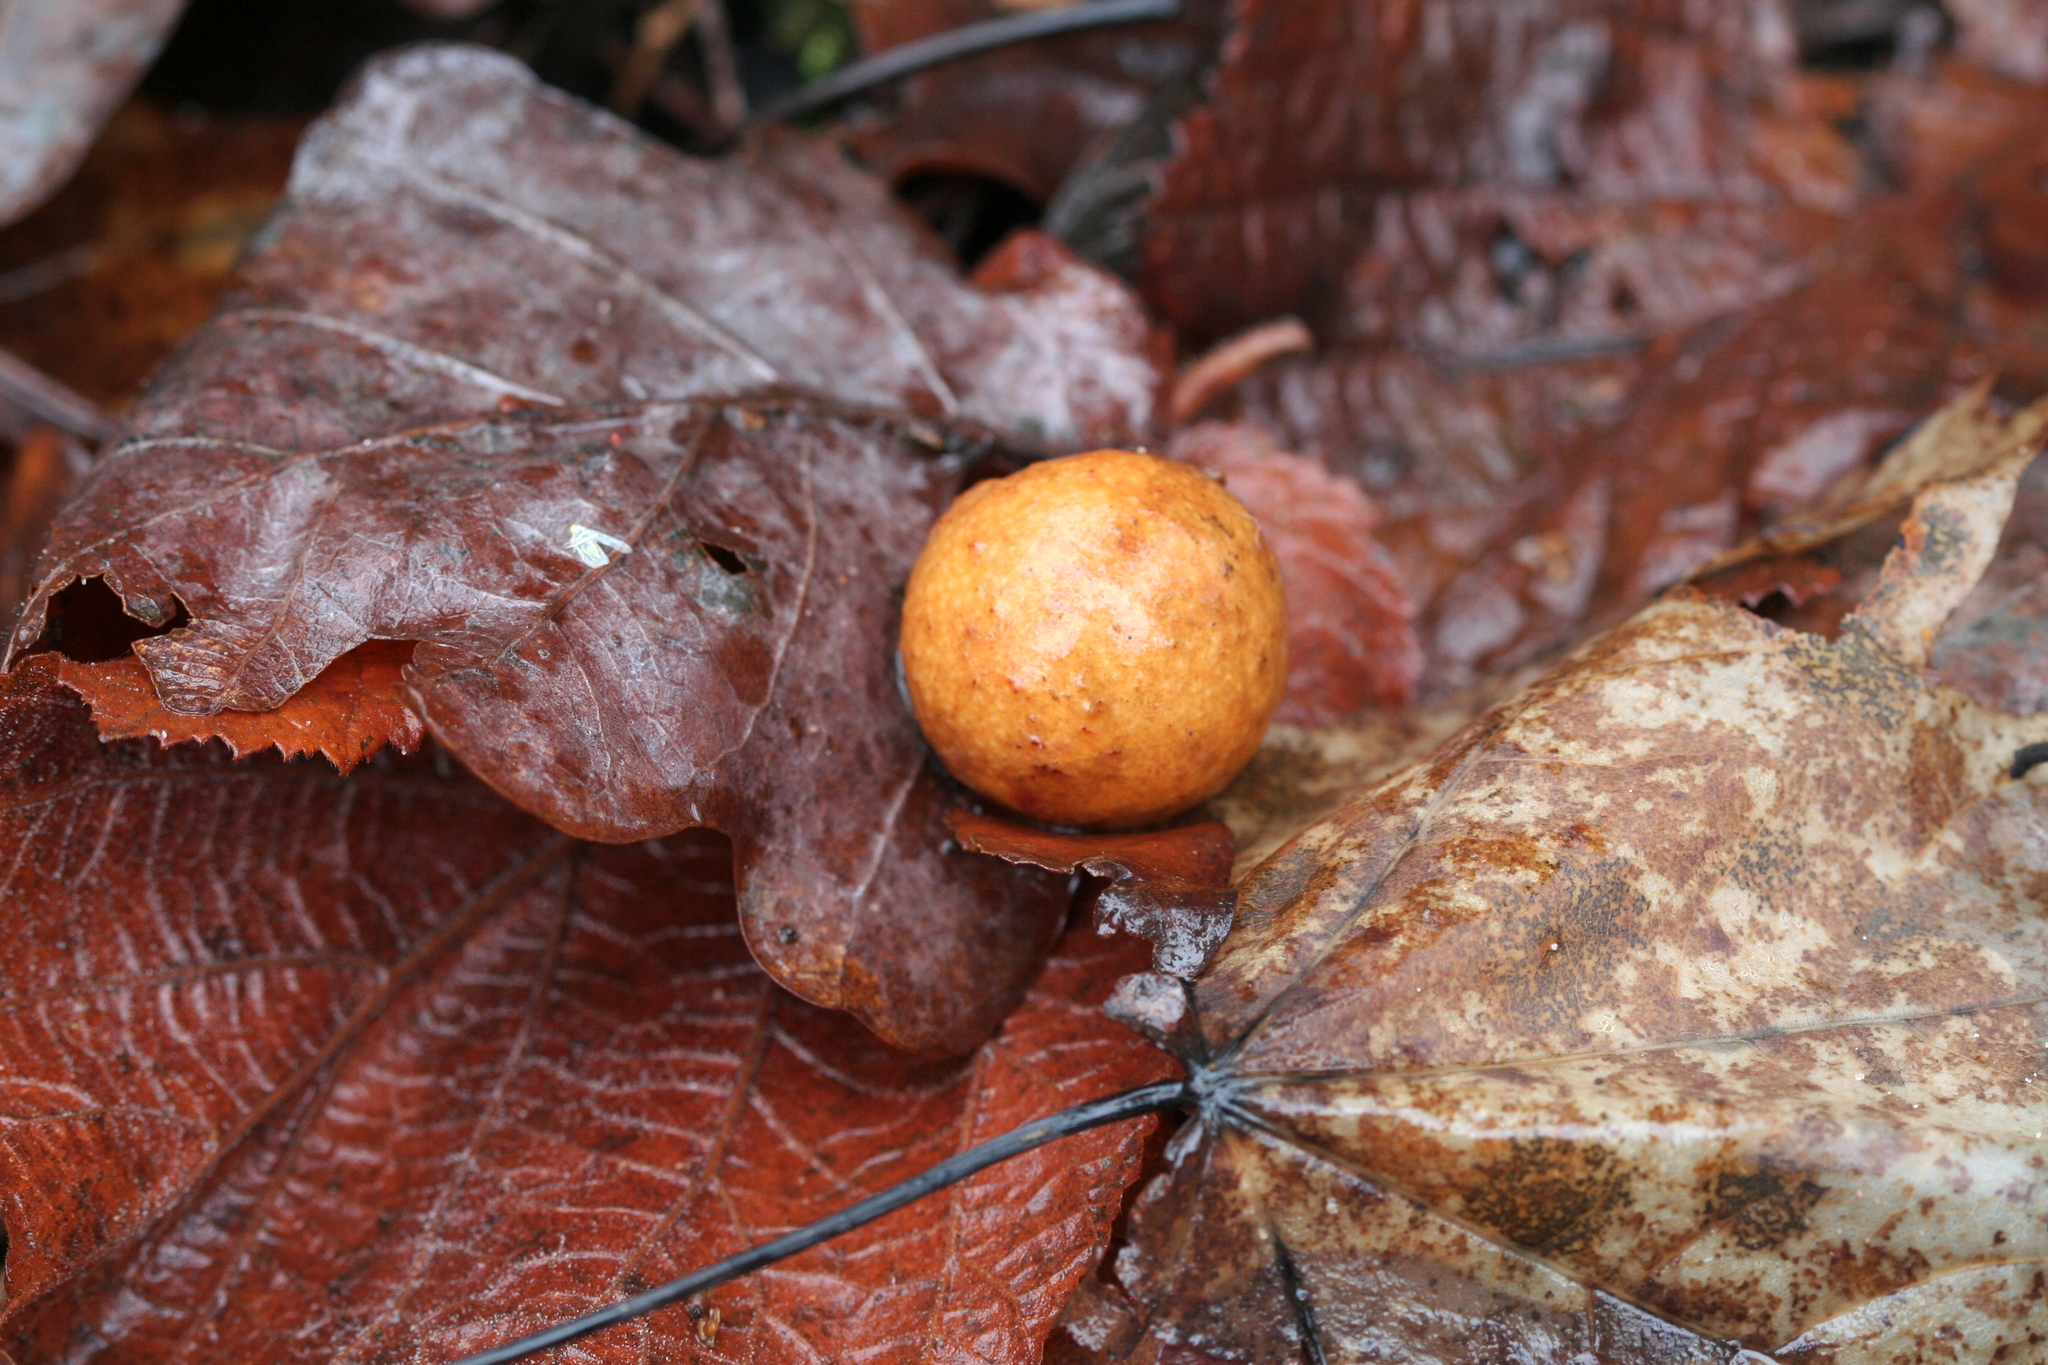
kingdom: Animalia
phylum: Arthropoda
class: Insecta
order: Hymenoptera
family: Cynipidae
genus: Cynips
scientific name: Cynips quercusfolii
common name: Cherry gall
